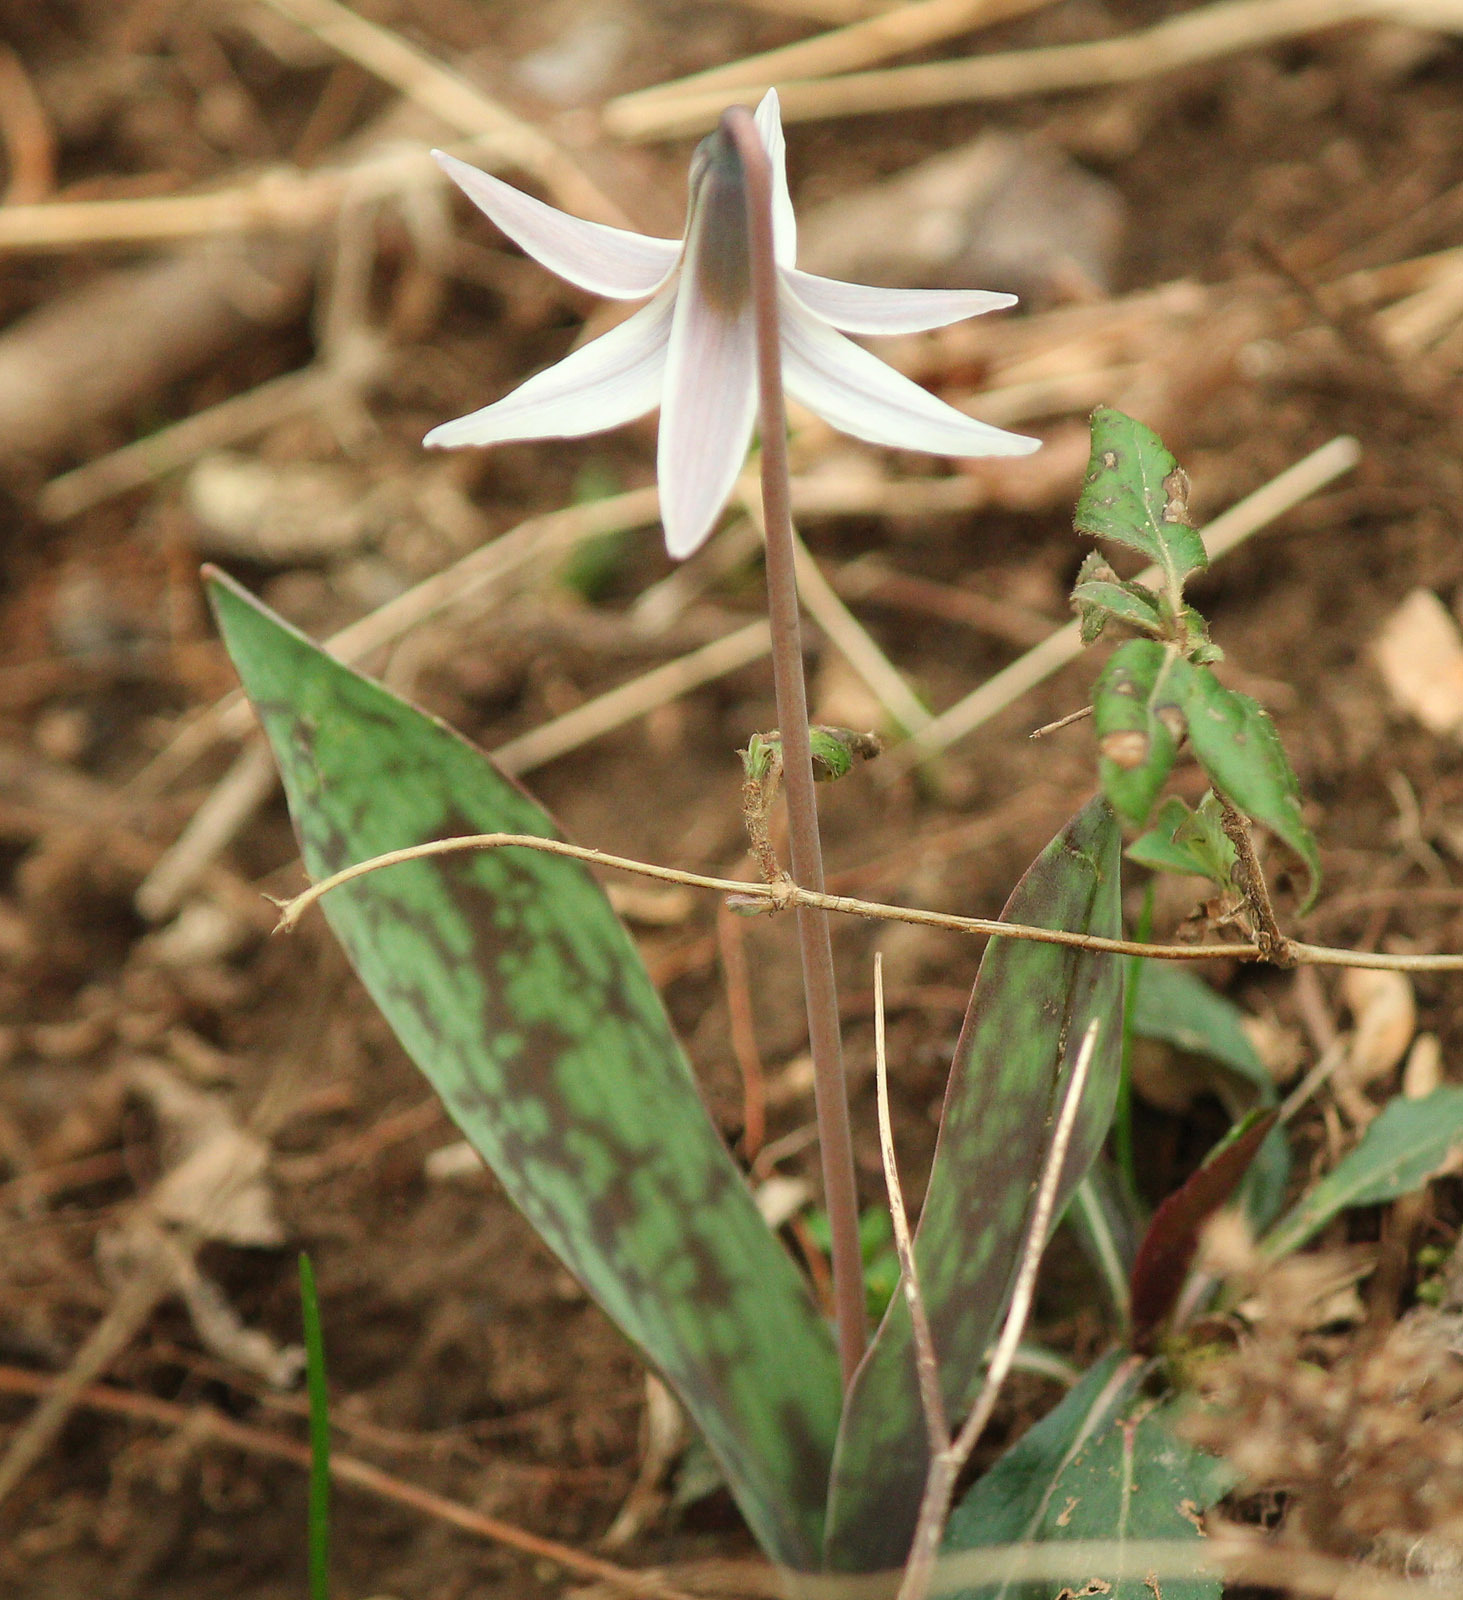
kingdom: Plantae
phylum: Tracheophyta
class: Liliopsida
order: Liliales
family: Liliaceae
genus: Erythronium
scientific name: Erythronium albidum
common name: White trout-lily
